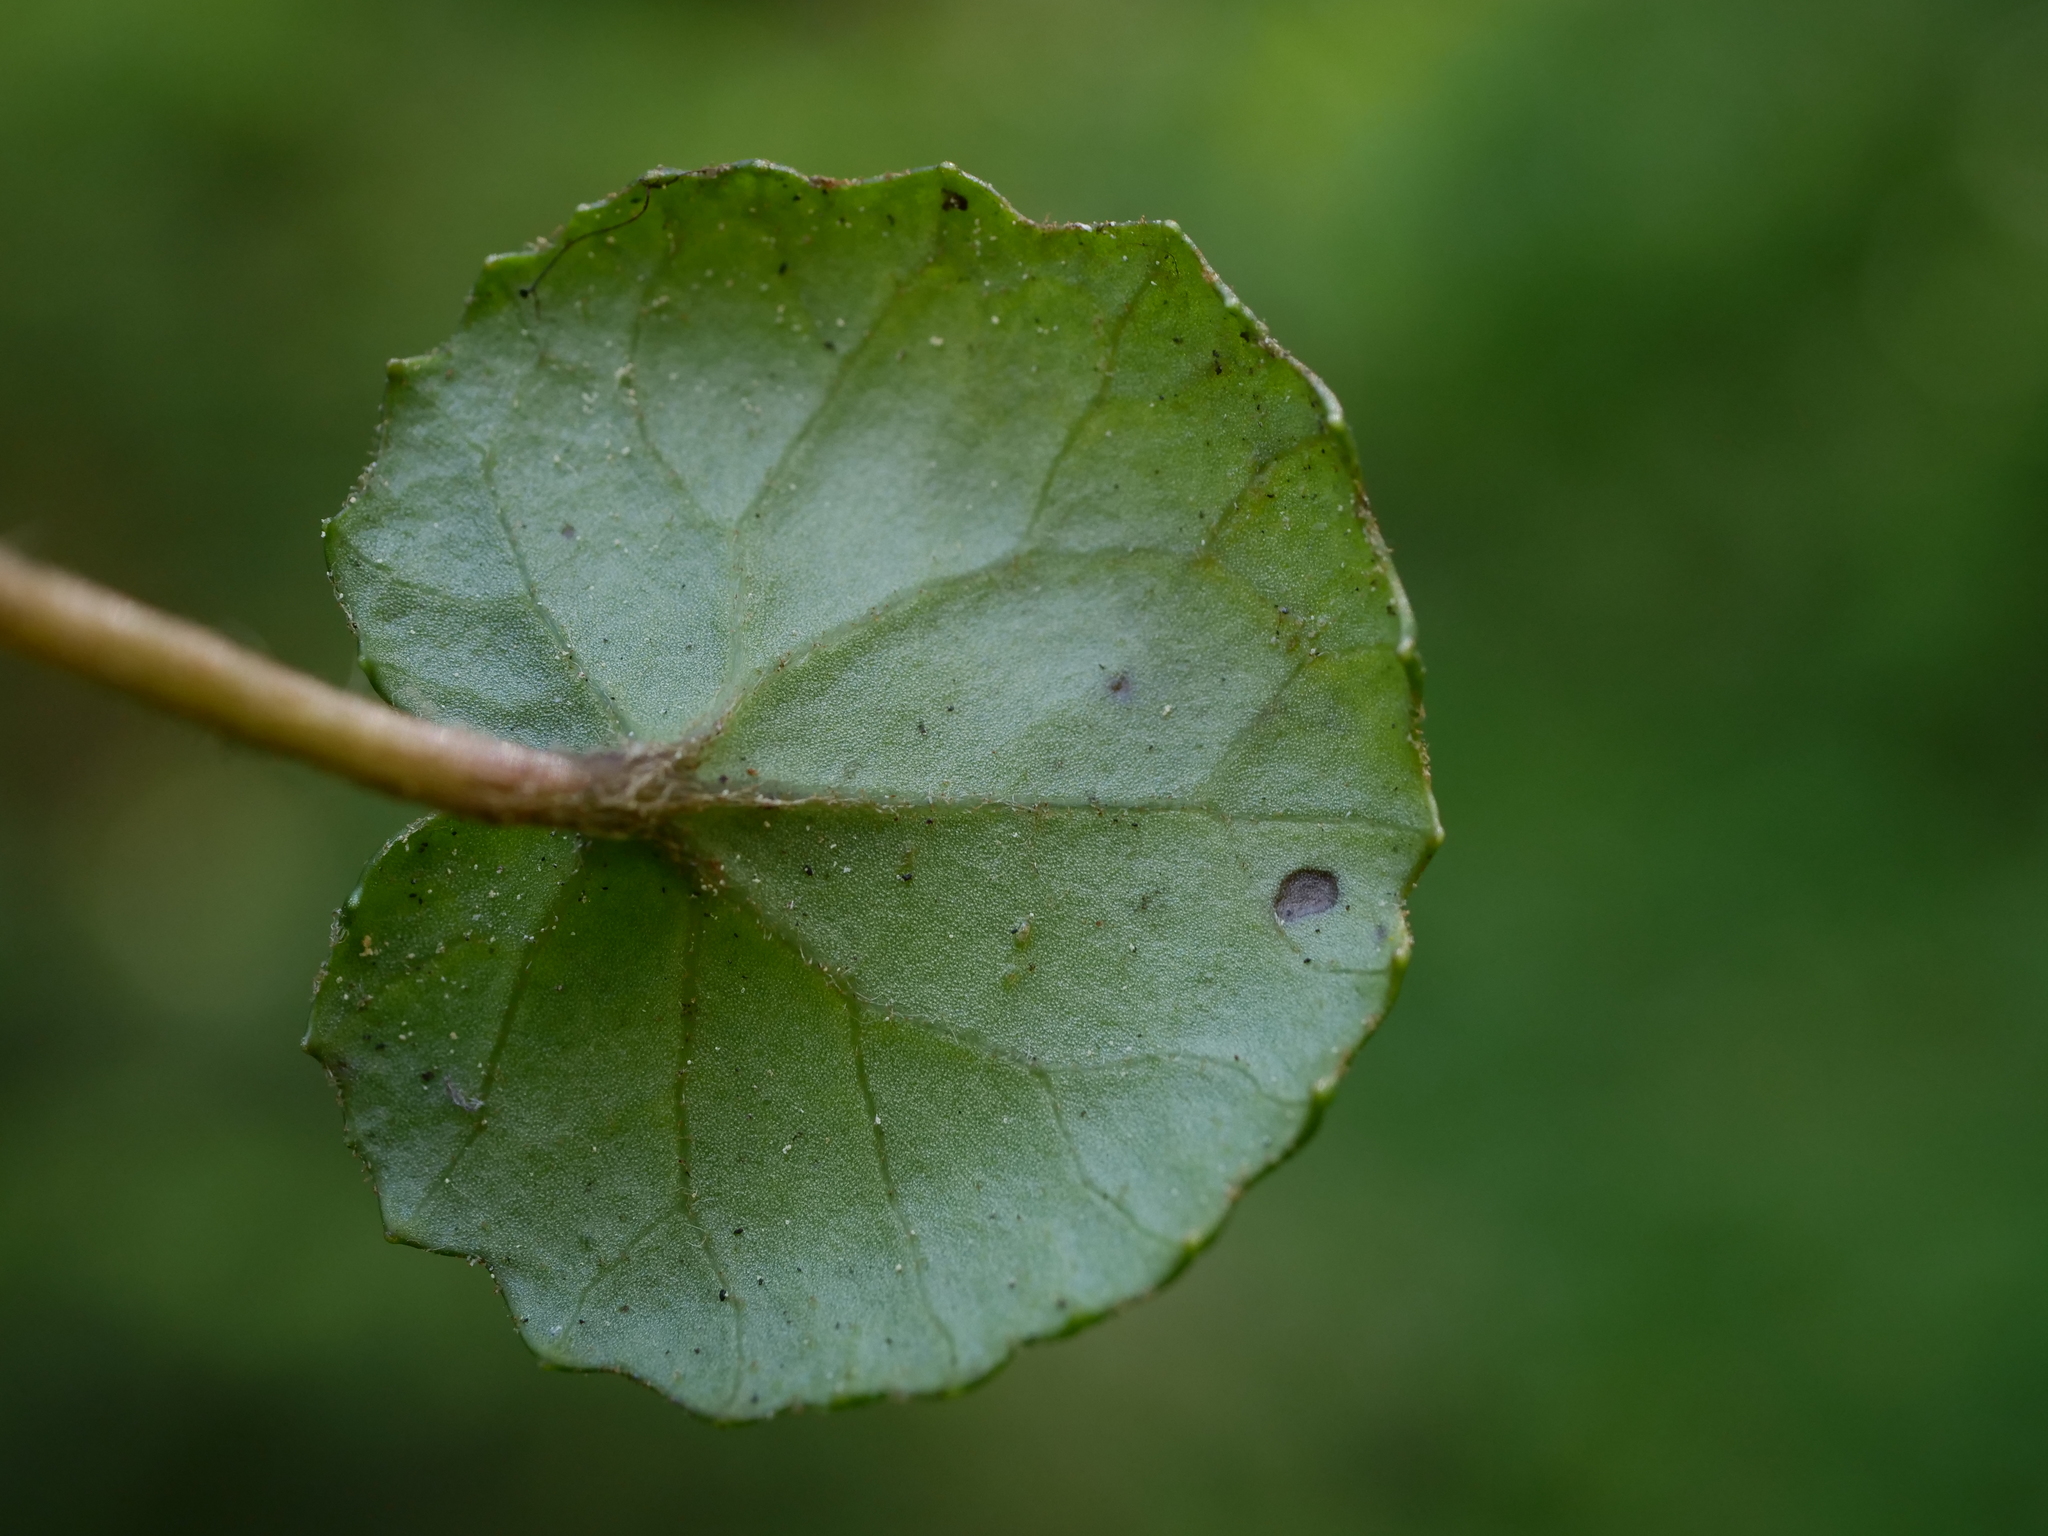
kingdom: Plantae
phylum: Tracheophyta
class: Magnoliopsida
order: Asterales
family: Asteraceae
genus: Homogyne
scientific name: Homogyne alpina
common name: Purple colt's-foot
